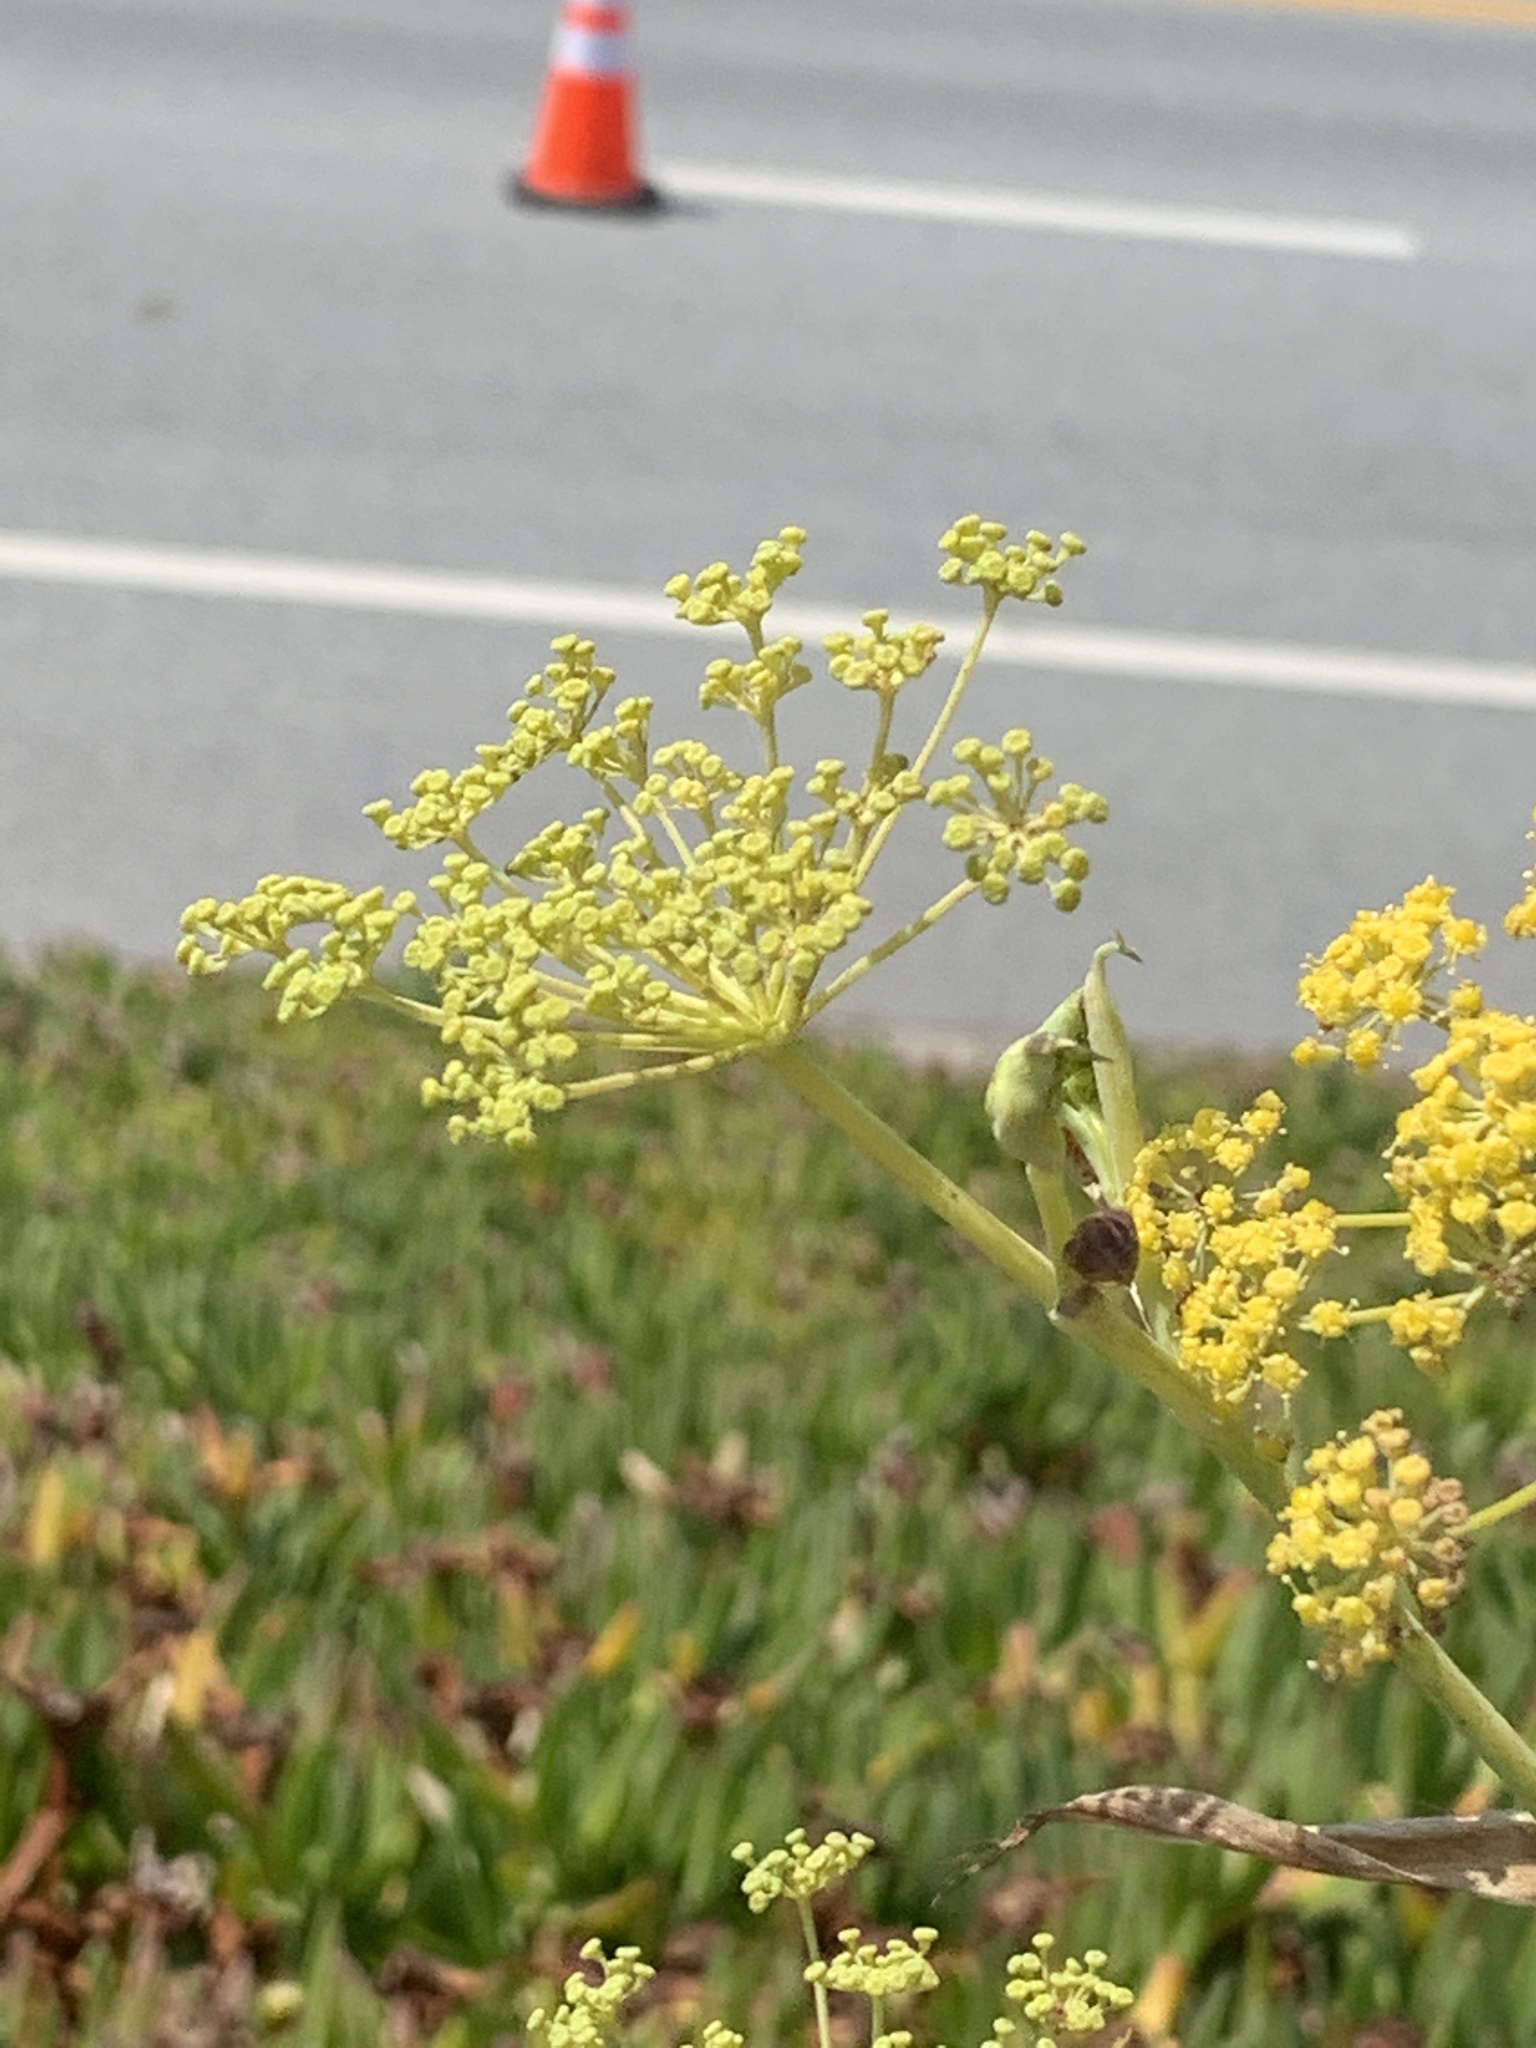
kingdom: Plantae
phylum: Tracheophyta
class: Magnoliopsida
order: Apiales
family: Apiaceae
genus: Foeniculum
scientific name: Foeniculum vulgare
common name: Fennel
